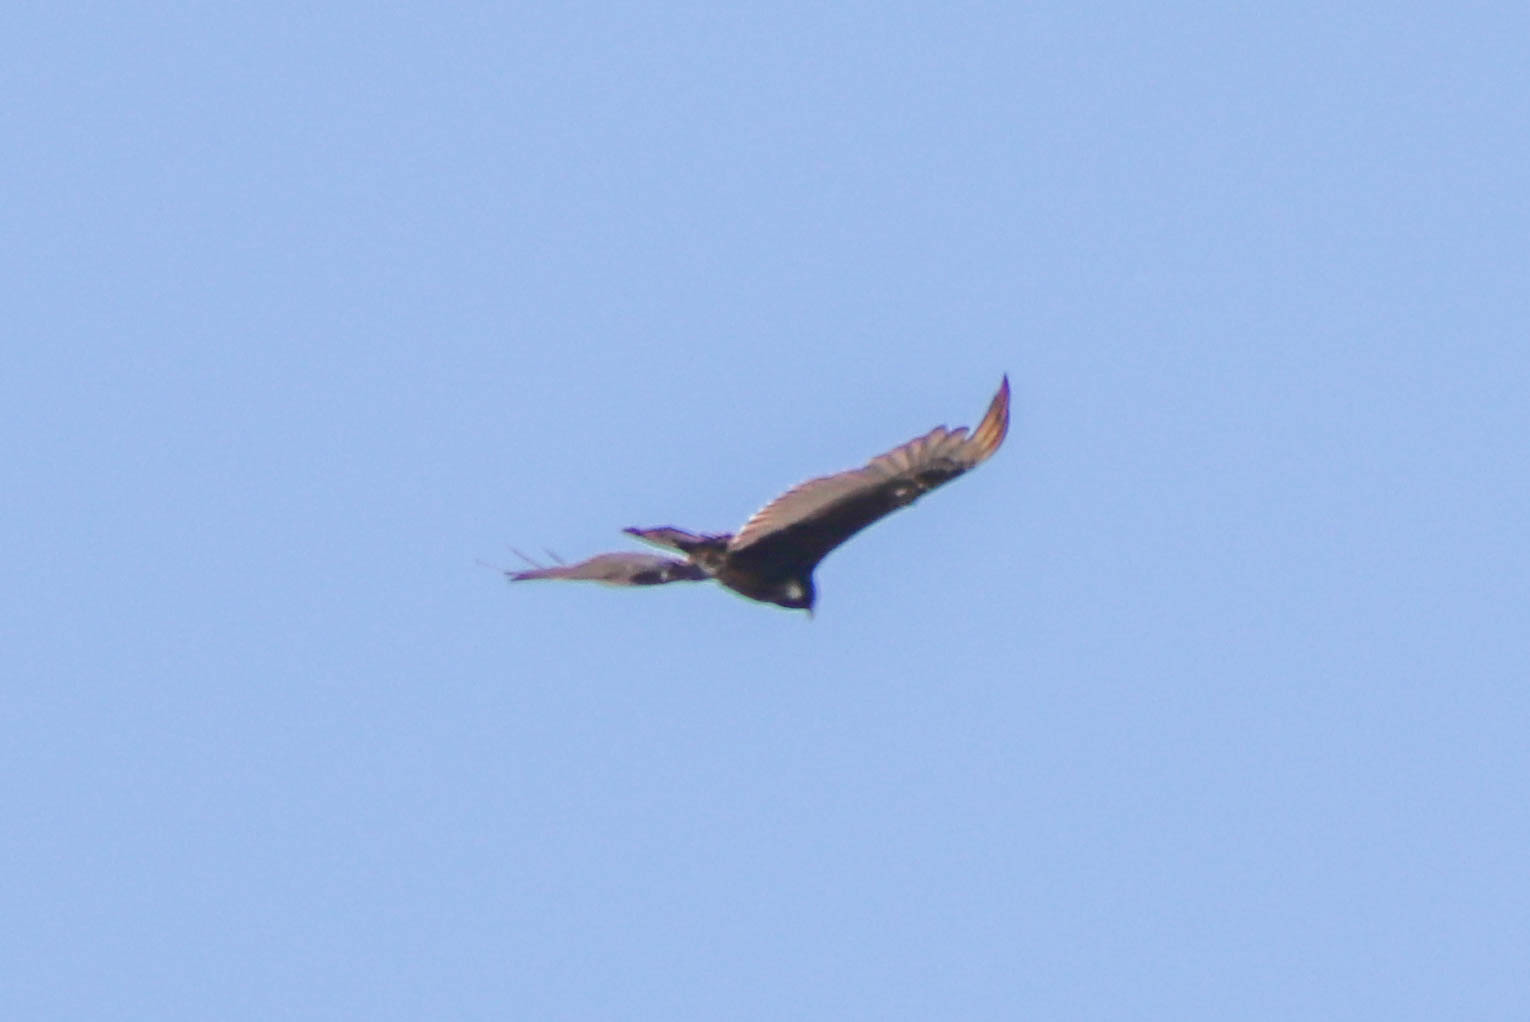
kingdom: Animalia
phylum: Chordata
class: Aves
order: Accipitriformes
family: Cathartidae
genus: Cathartes
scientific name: Cathartes aura
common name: Turkey vulture
